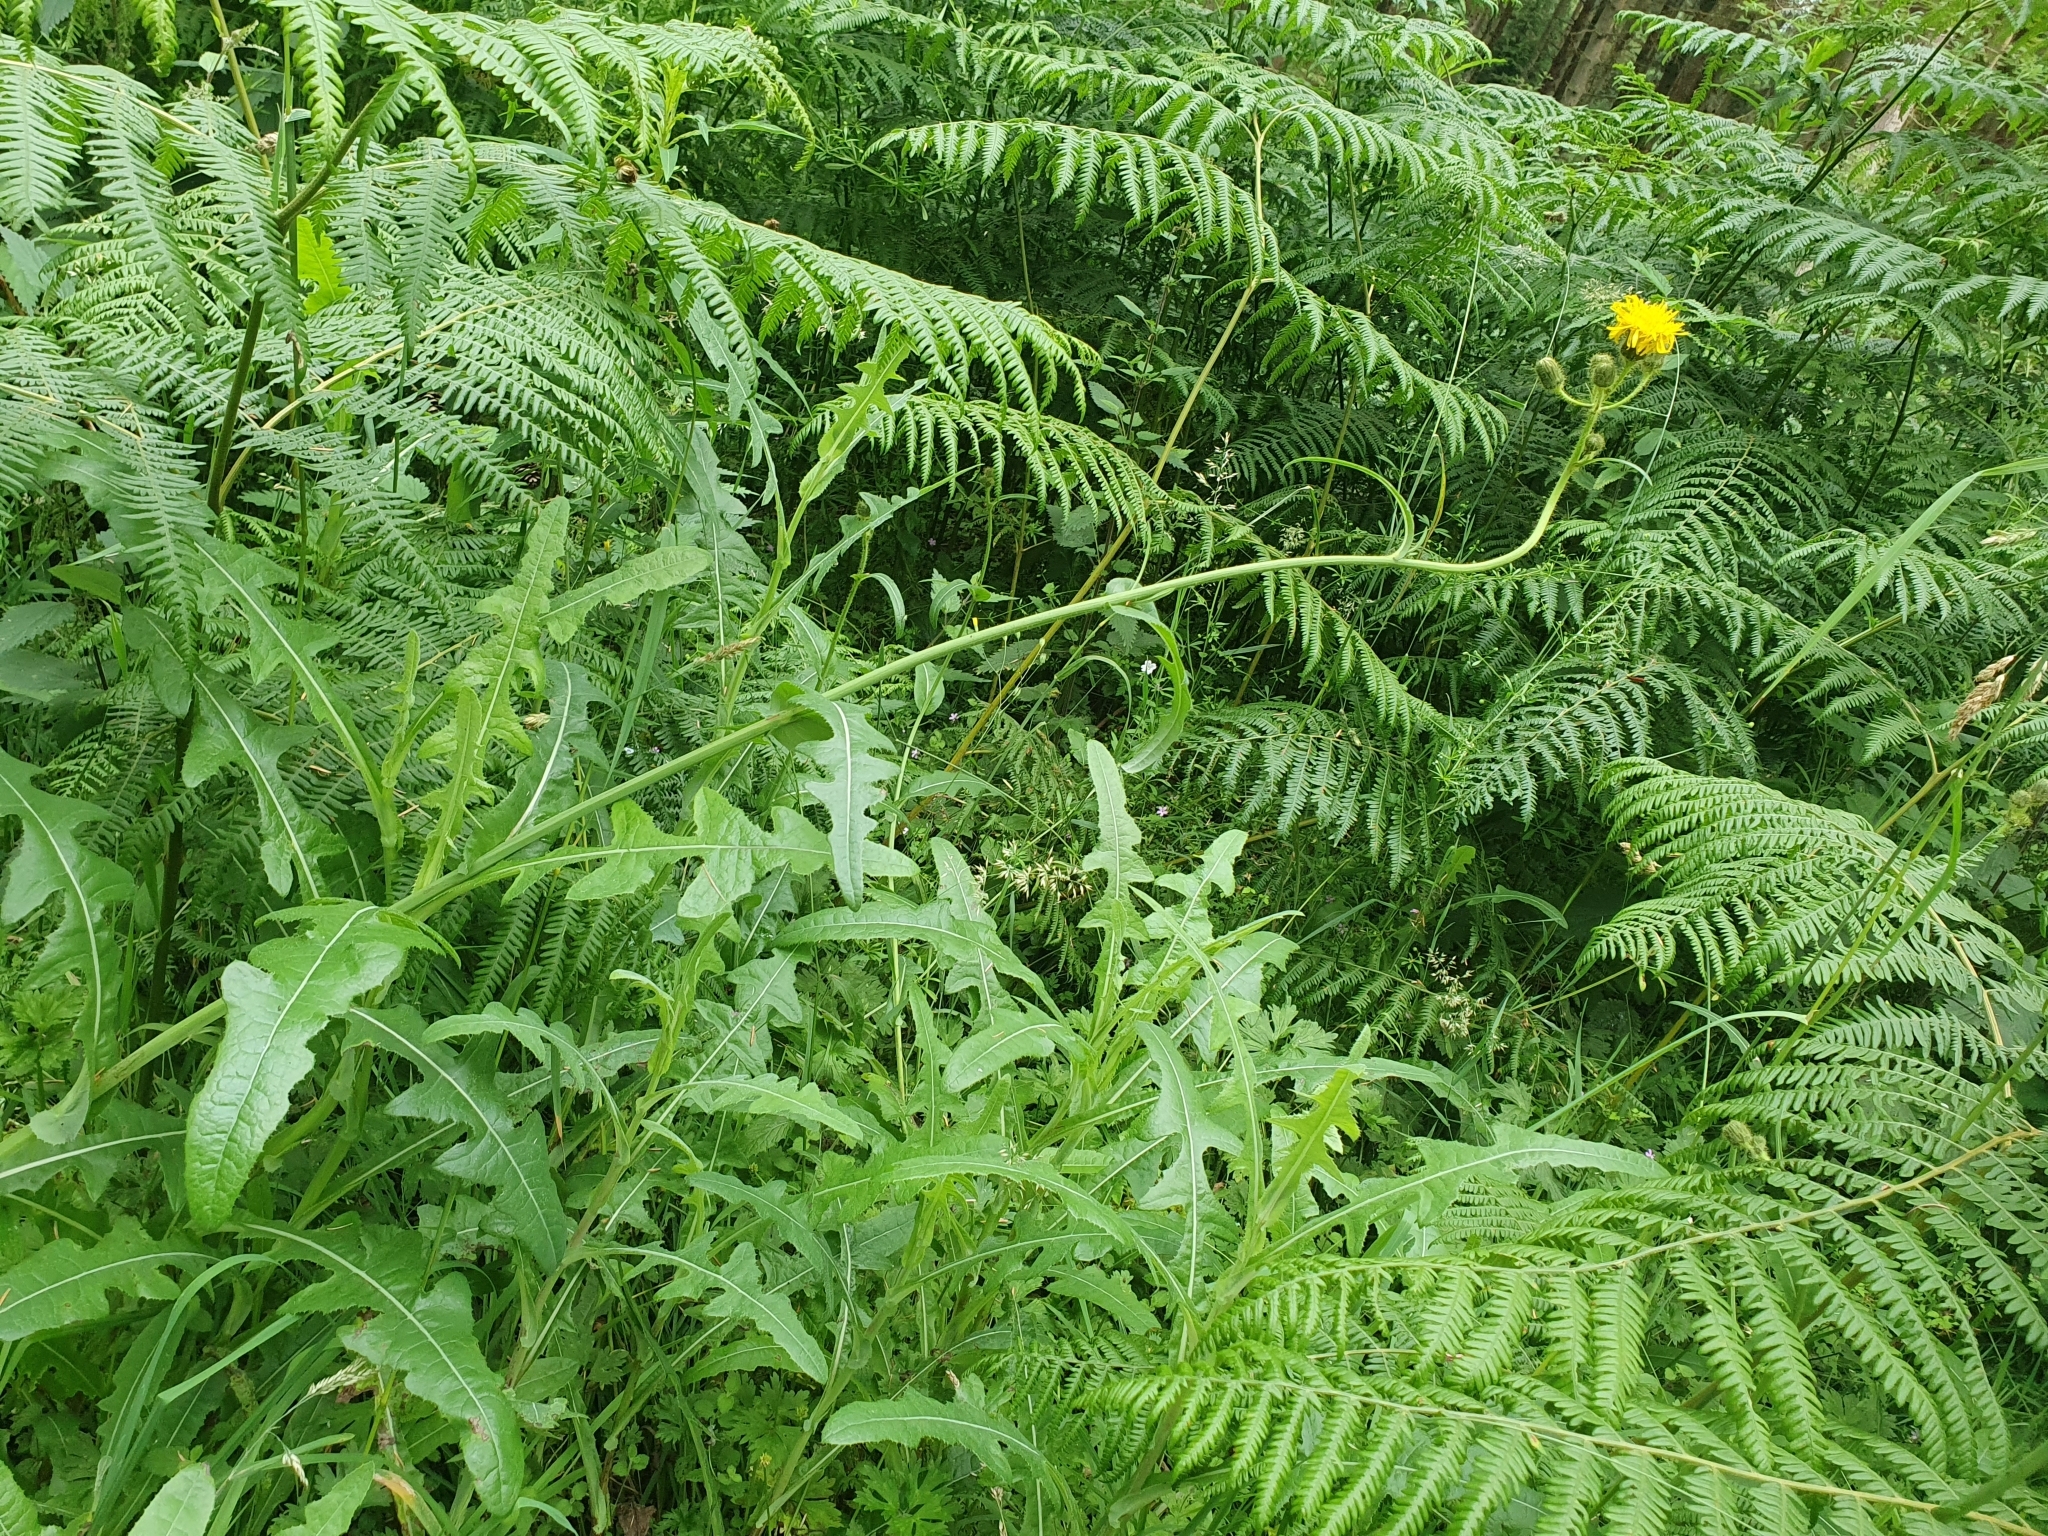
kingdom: Plantae
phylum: Tracheophyta
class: Magnoliopsida
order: Asterales
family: Asteraceae
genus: Sonchus
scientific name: Sonchus arvensis
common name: Perennial sow-thistle
